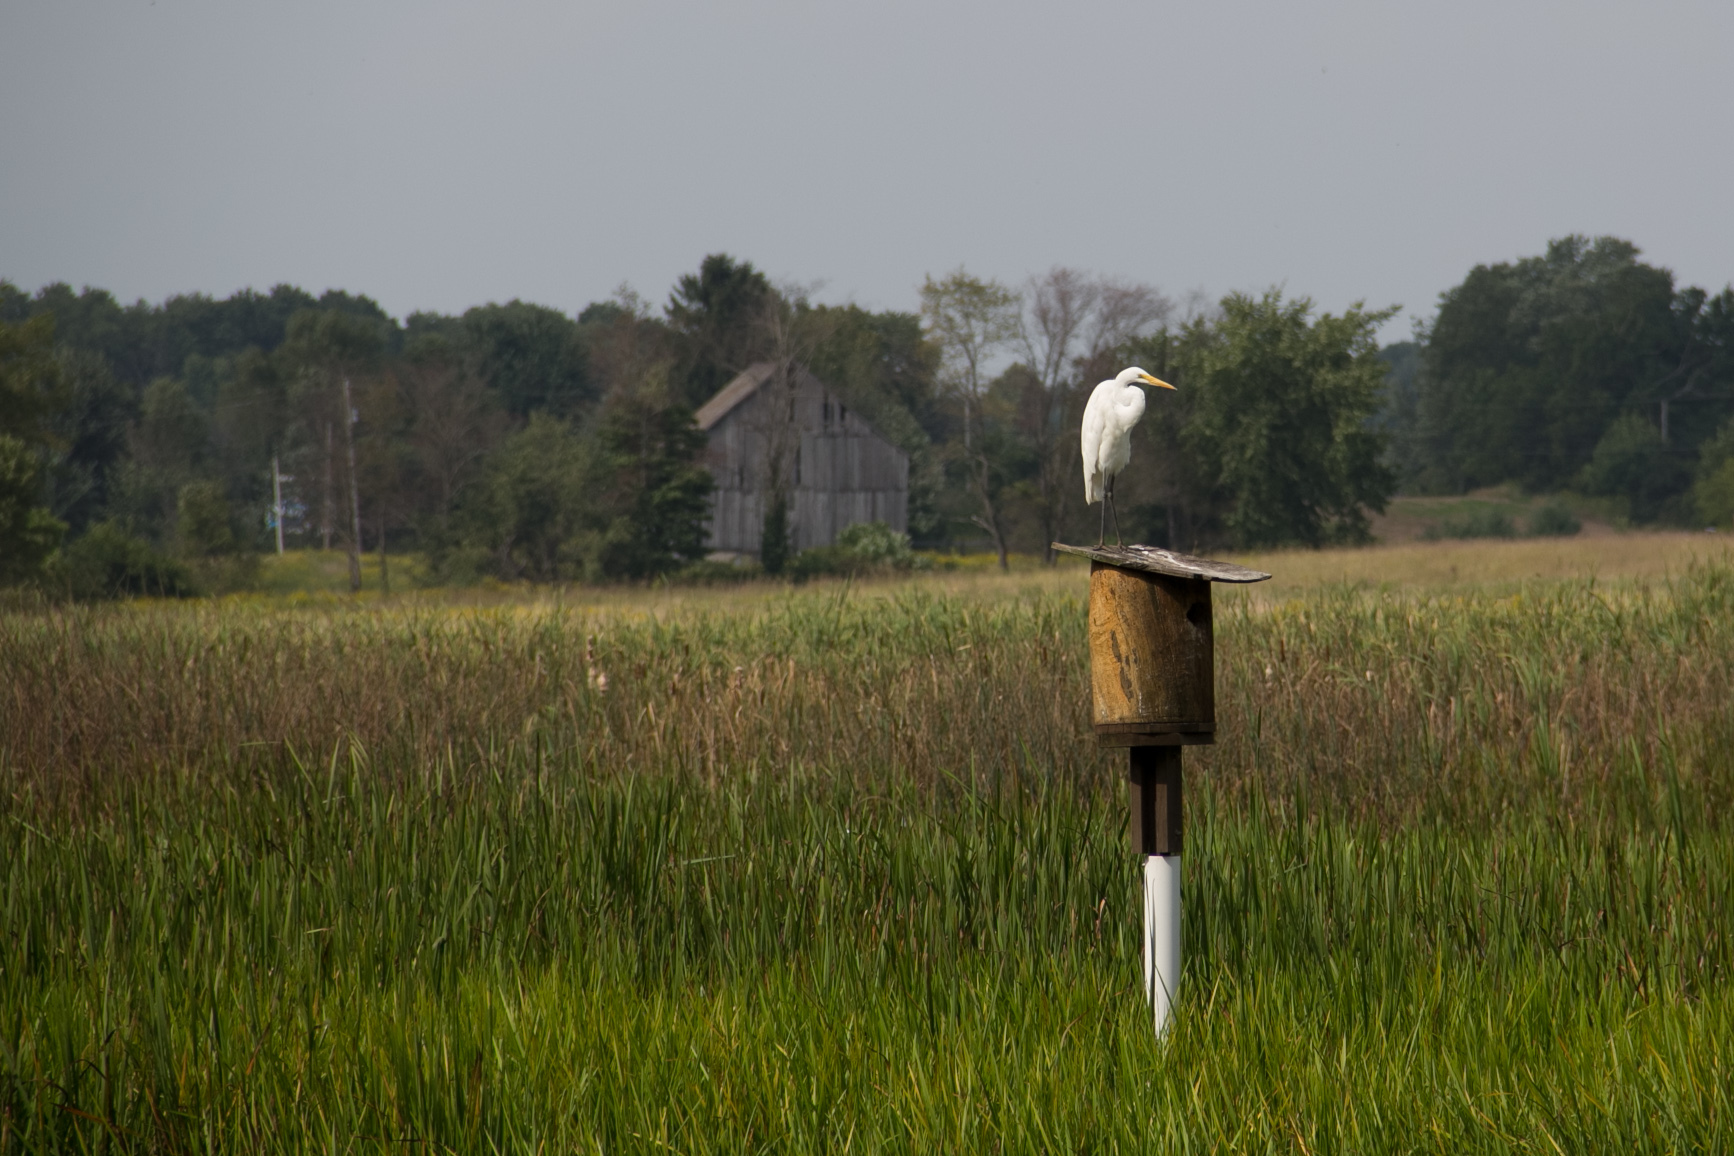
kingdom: Animalia
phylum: Chordata
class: Aves
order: Pelecaniformes
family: Ardeidae
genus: Ardea
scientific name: Ardea alba
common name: Great egret
